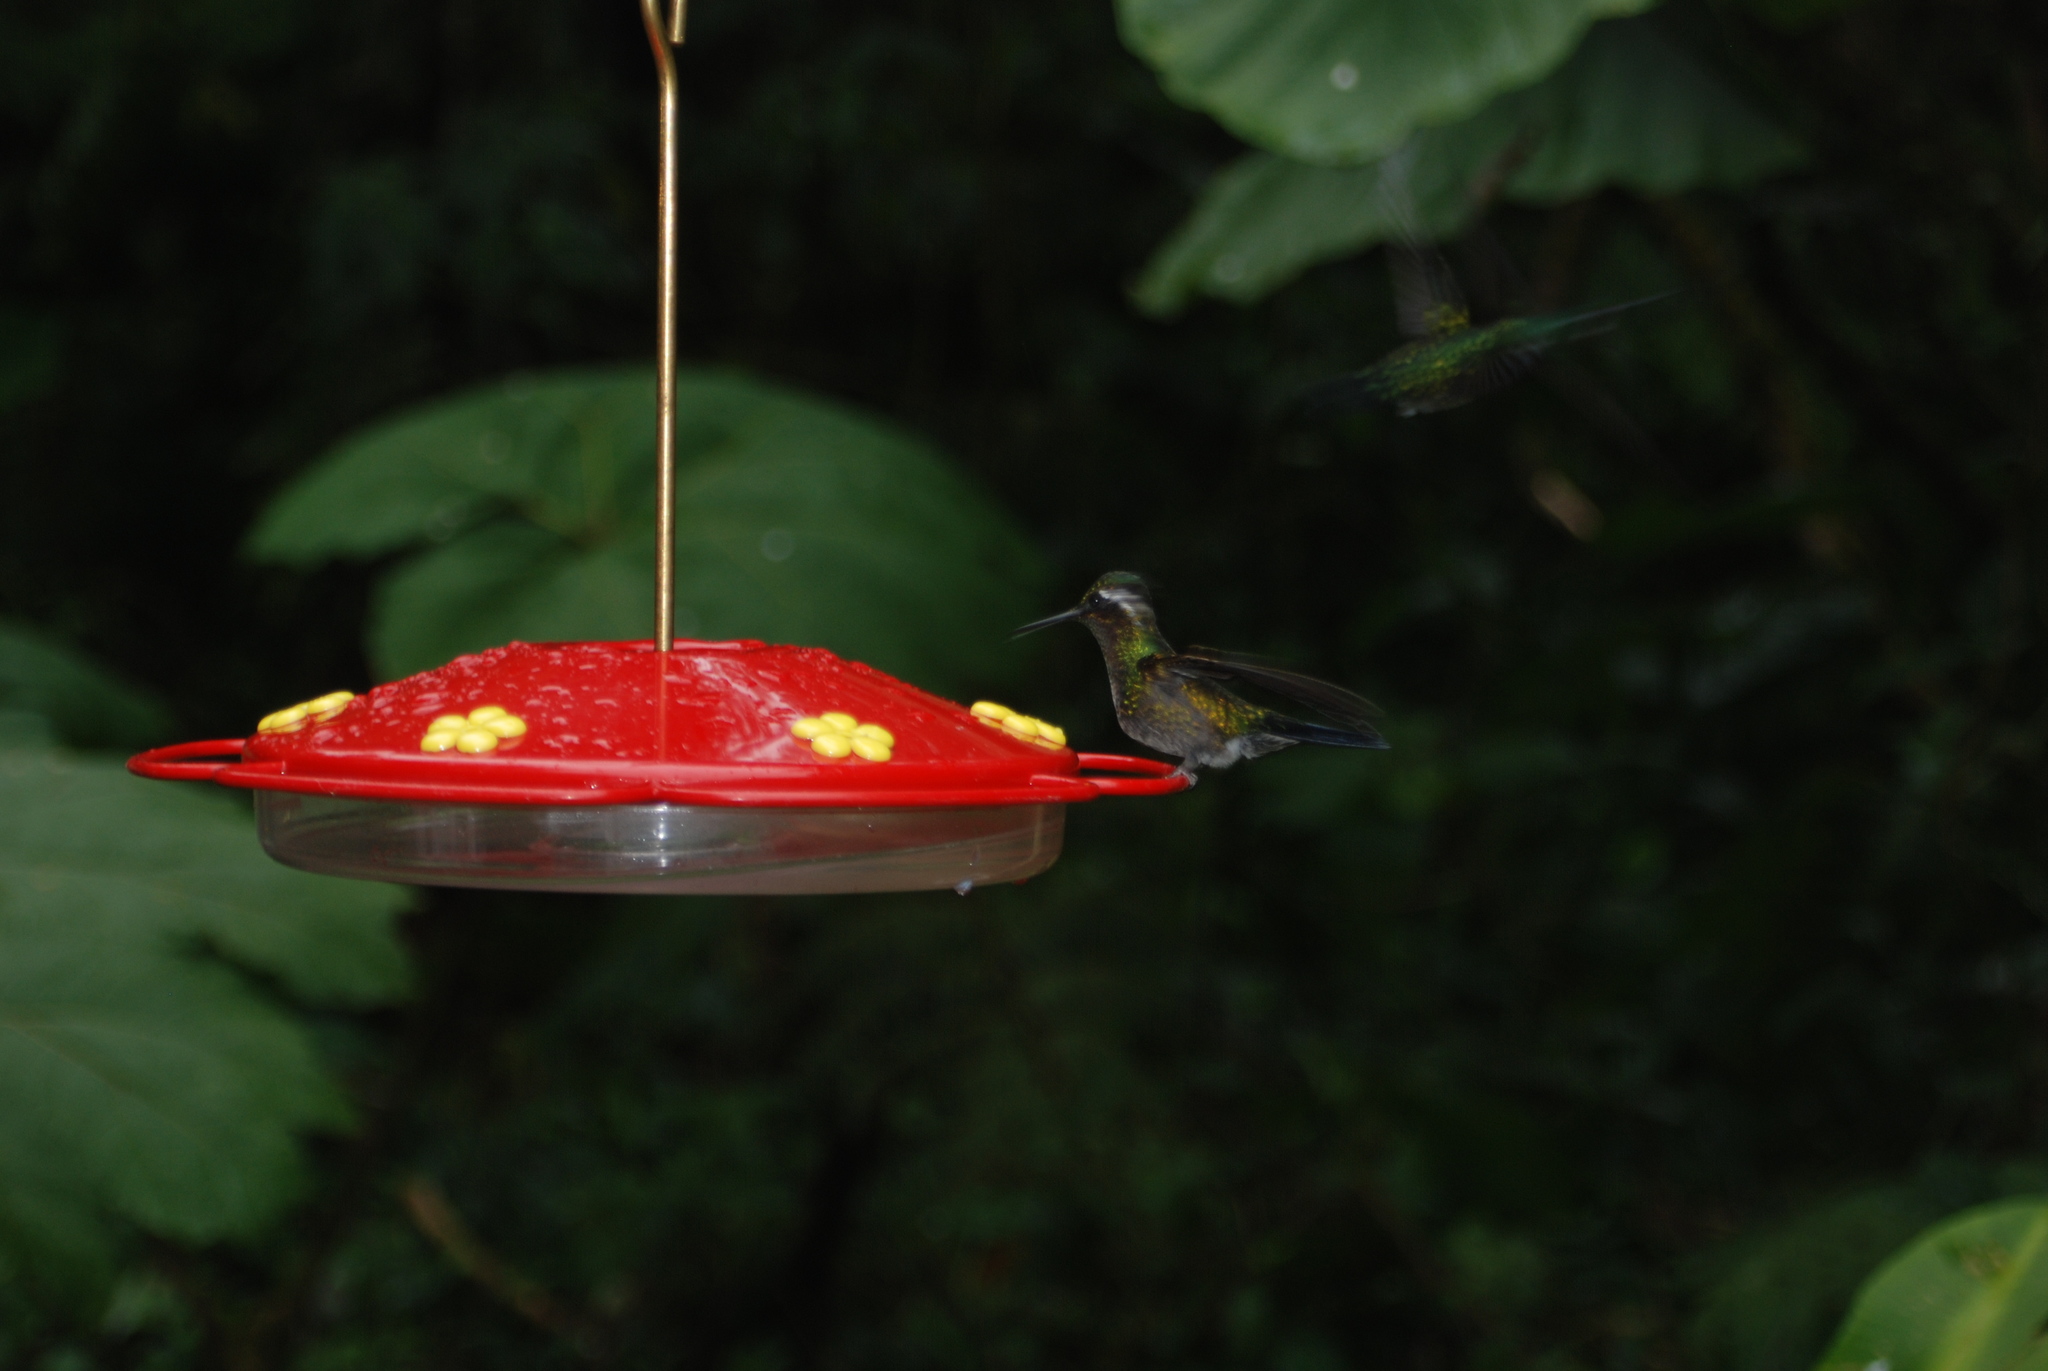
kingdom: Animalia
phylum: Chordata
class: Aves
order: Apodiformes
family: Trochilidae
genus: Lampornis
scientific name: Lampornis calolaemus
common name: Purple-throated mountain-gem
